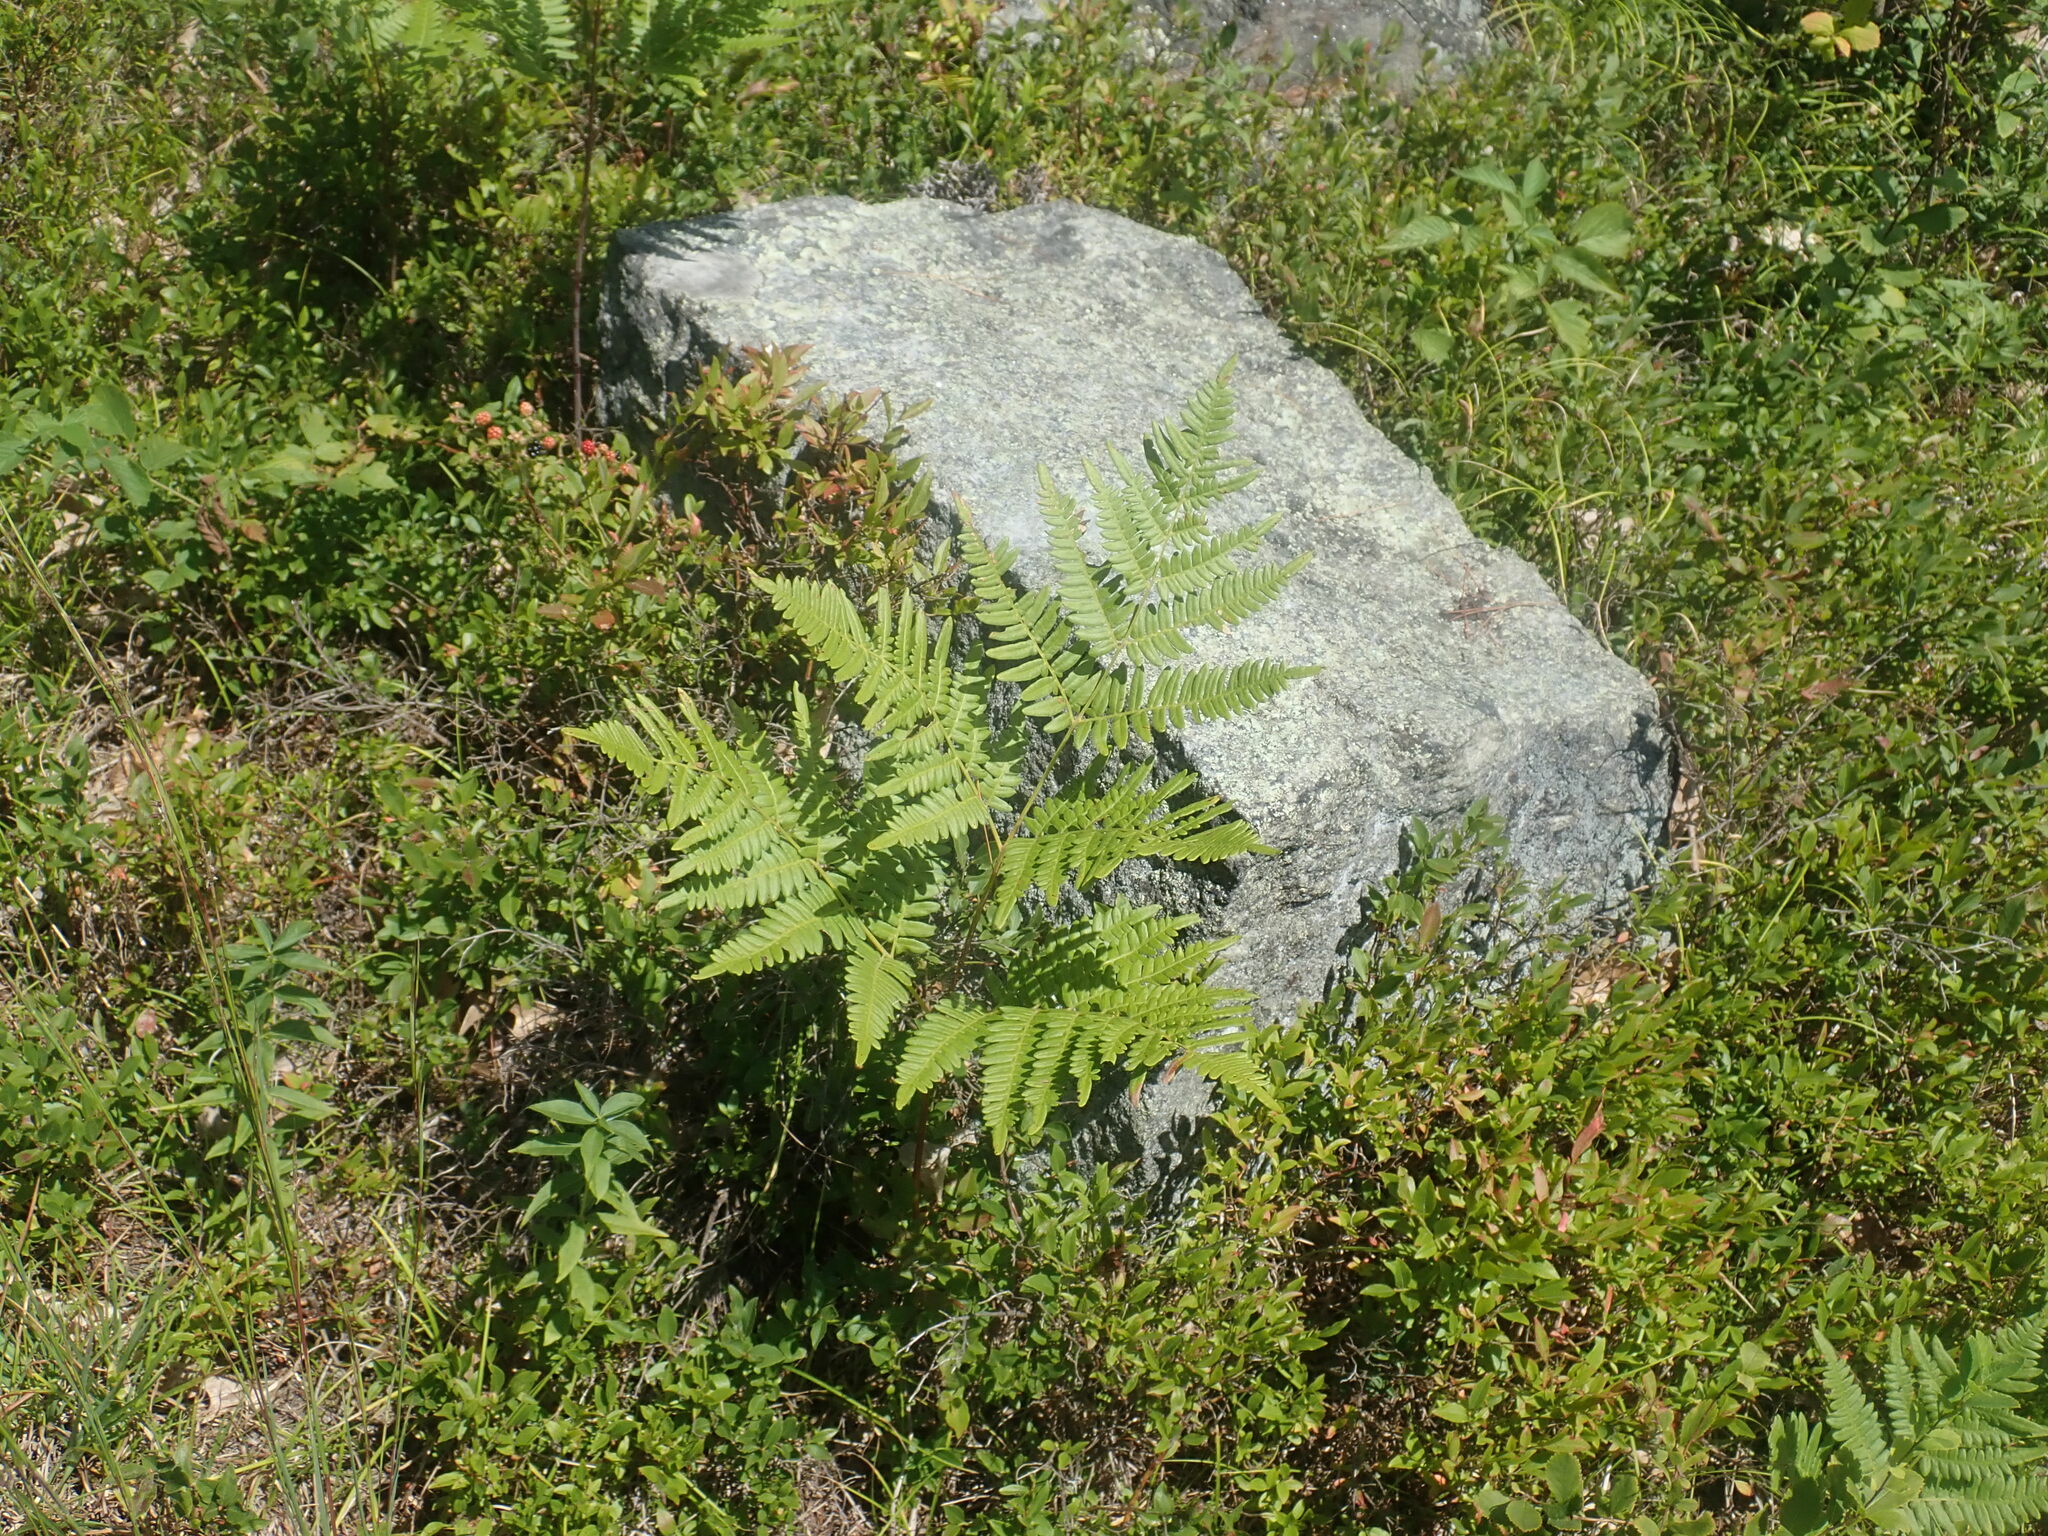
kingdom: Plantae
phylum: Tracheophyta
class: Polypodiopsida
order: Polypodiales
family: Dennstaedtiaceae
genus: Pteridium
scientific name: Pteridium aquilinum
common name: Bracken
